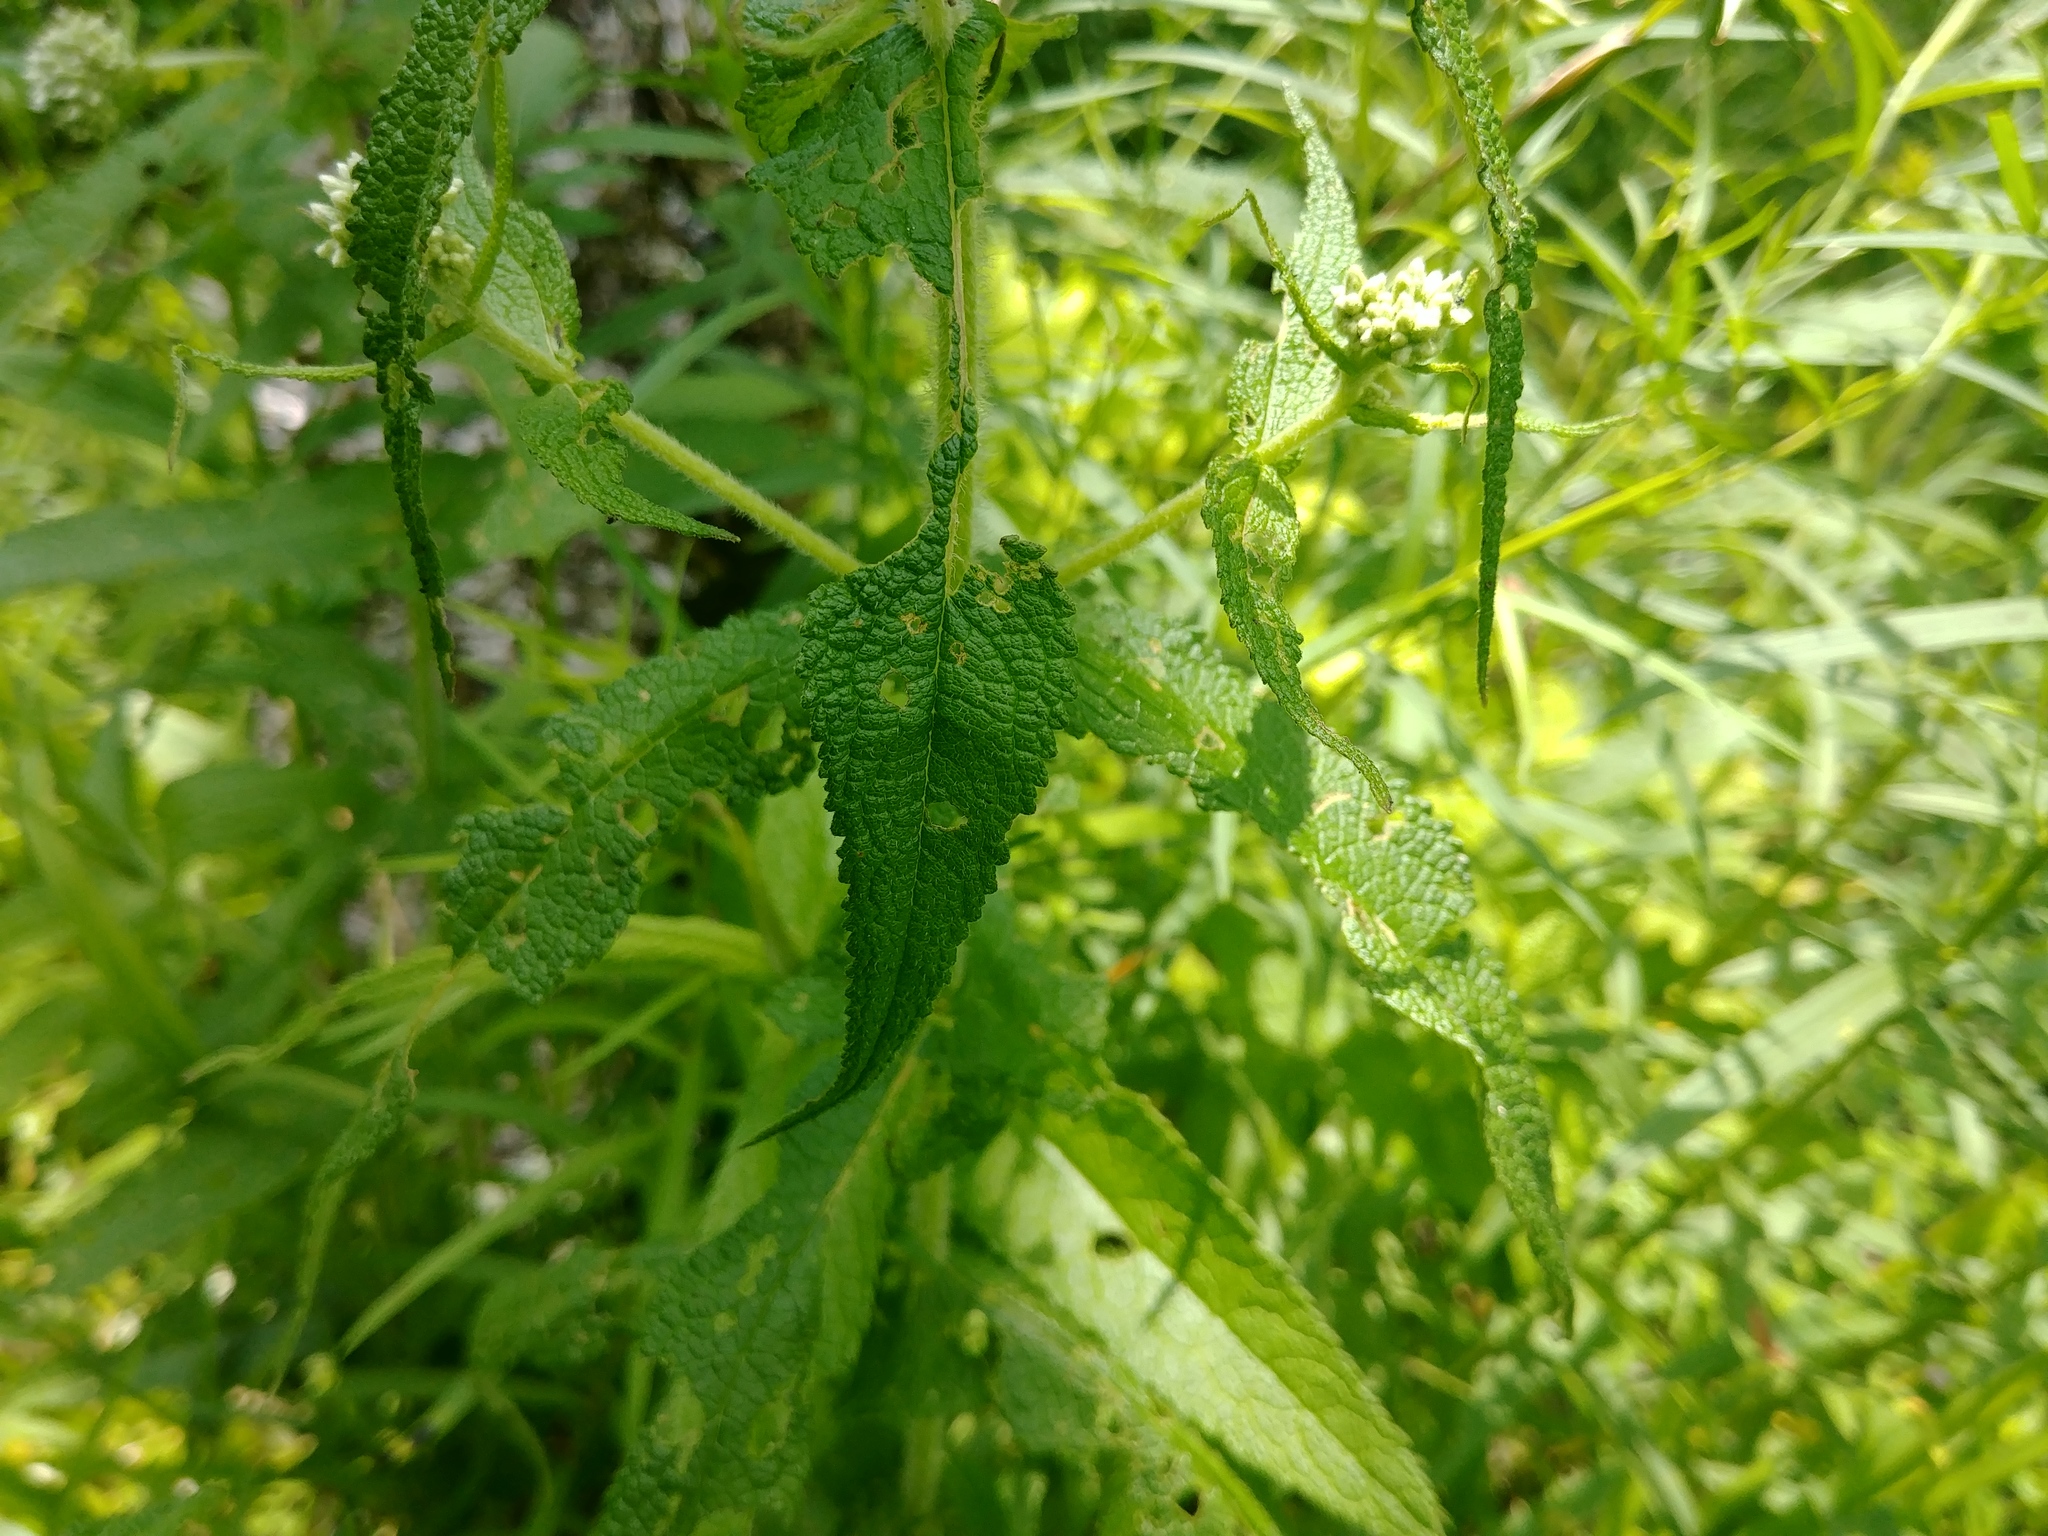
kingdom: Plantae
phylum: Tracheophyta
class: Magnoliopsida
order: Asterales
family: Asteraceae
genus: Eupatorium
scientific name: Eupatorium perfoliatum
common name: Boneset
